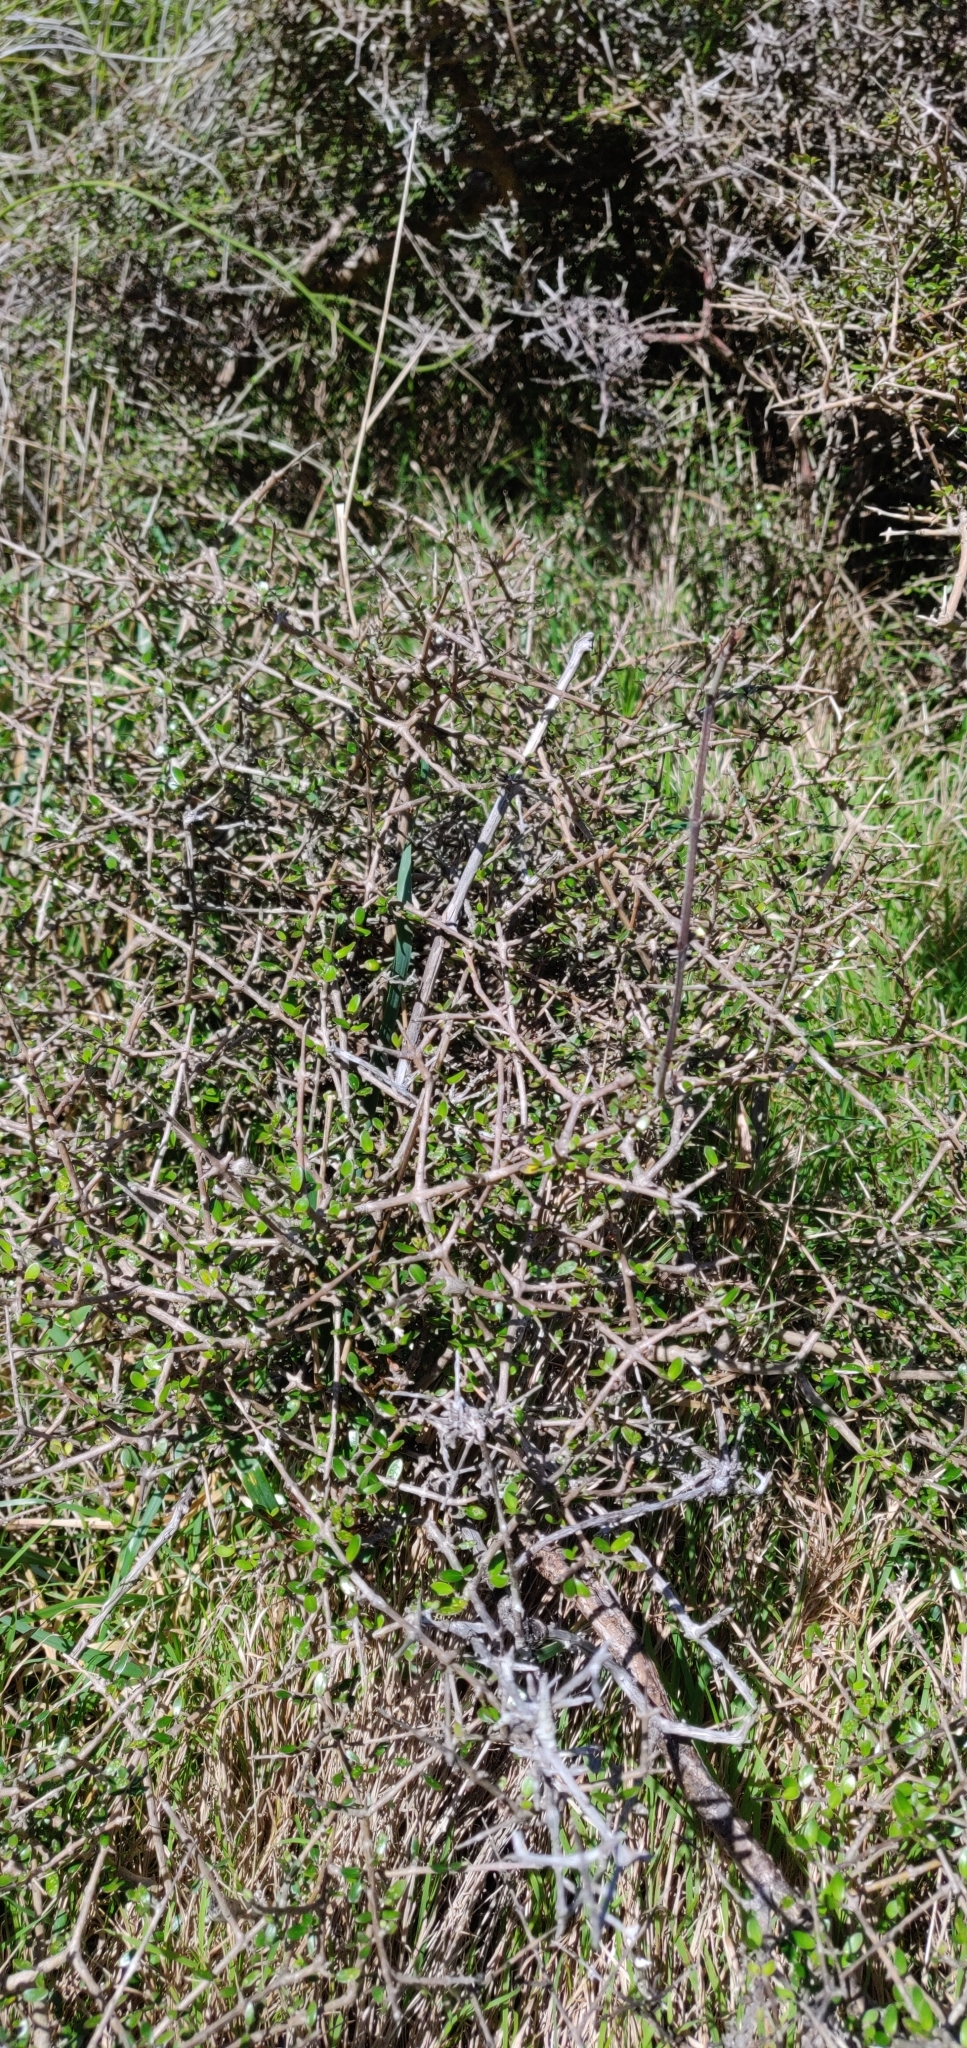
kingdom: Plantae
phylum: Tracheophyta
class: Magnoliopsida
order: Gentianales
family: Rubiaceae
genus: Coprosma
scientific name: Coprosma propinqua
